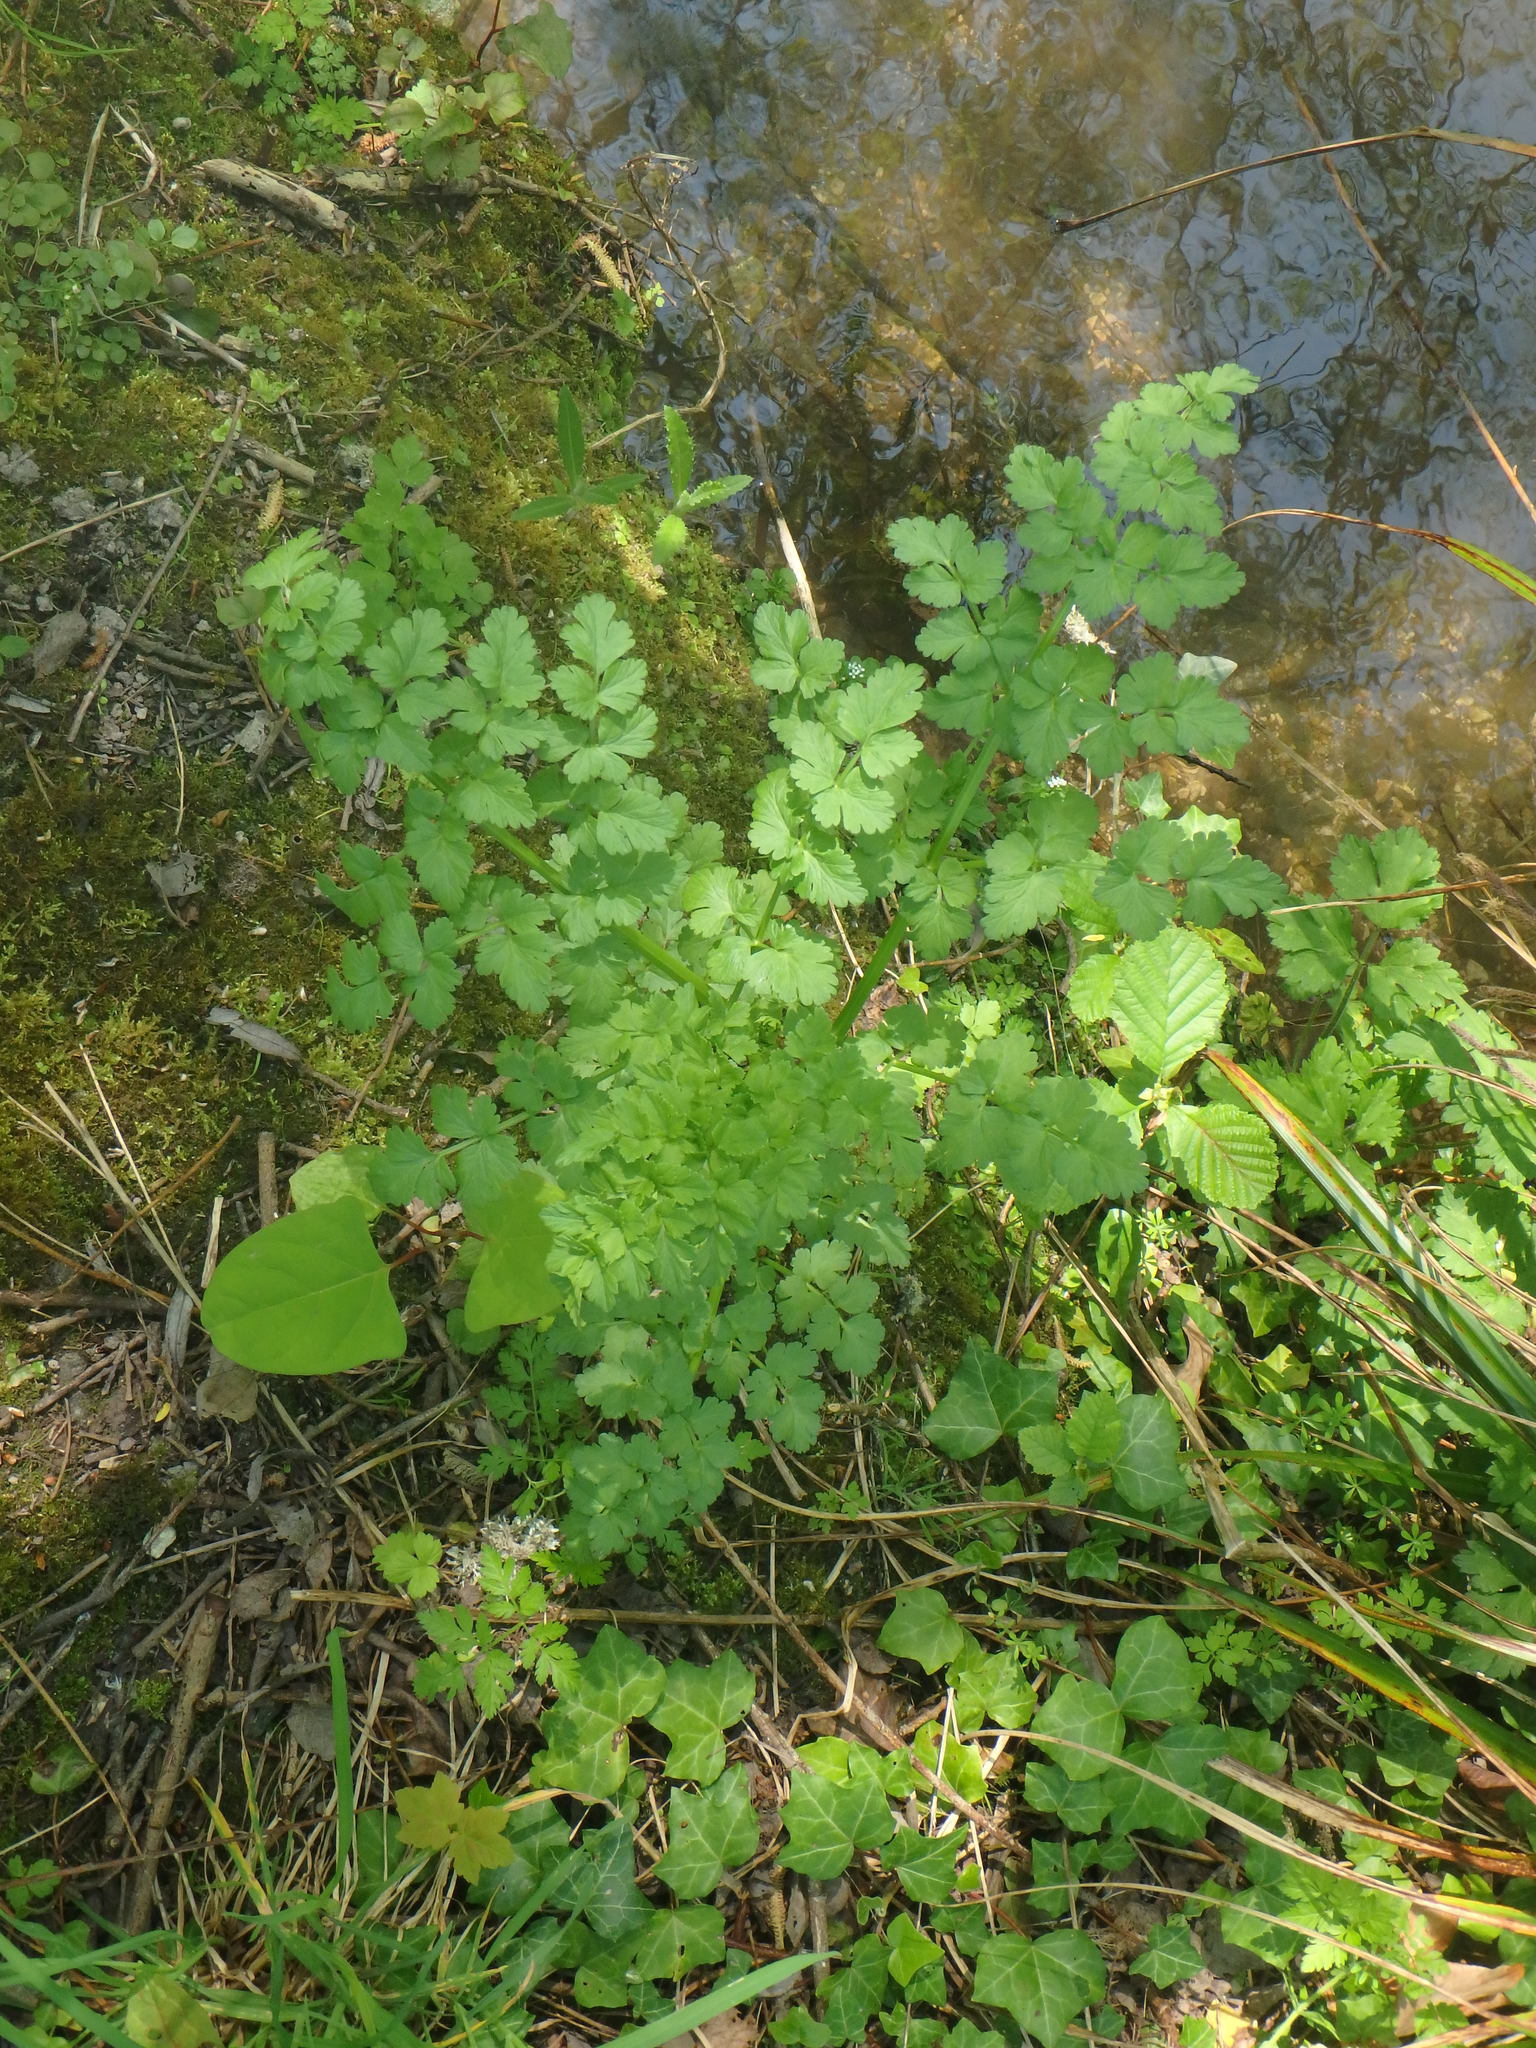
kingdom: Plantae
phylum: Tracheophyta
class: Magnoliopsida
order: Apiales
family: Apiaceae
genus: Oenanthe
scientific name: Oenanthe crocata
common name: Hemlock water-dropwort
